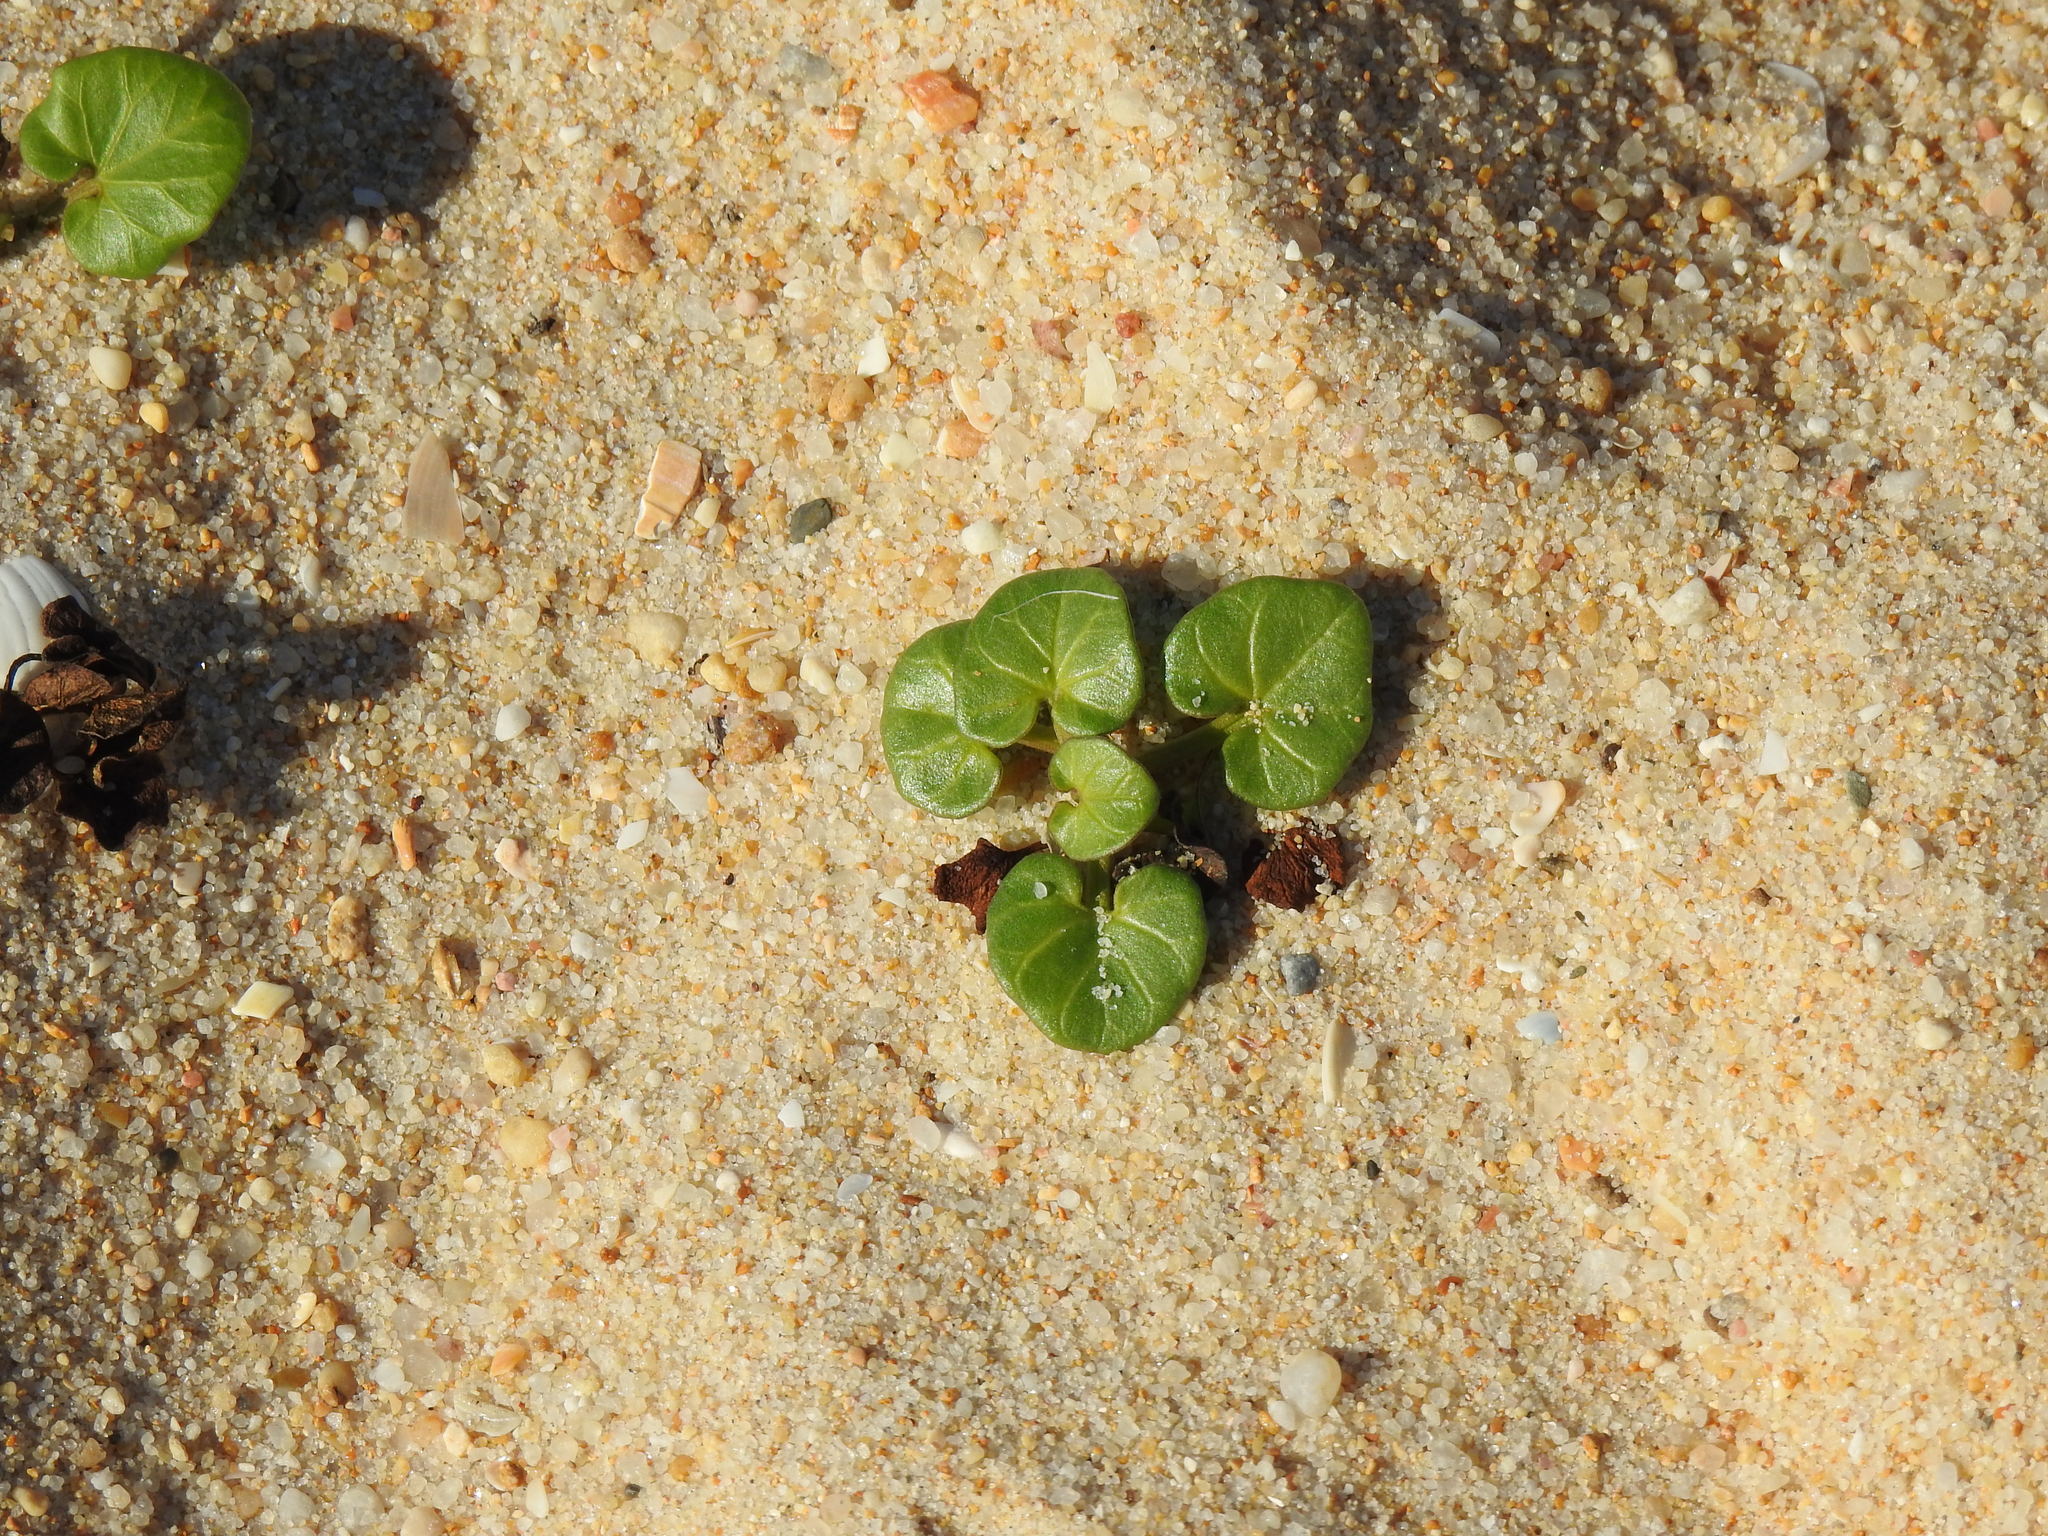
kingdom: Plantae
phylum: Tracheophyta
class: Magnoliopsida
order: Solanales
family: Convolvulaceae
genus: Calystegia
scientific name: Calystegia soldanella
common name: Sea bindweed
